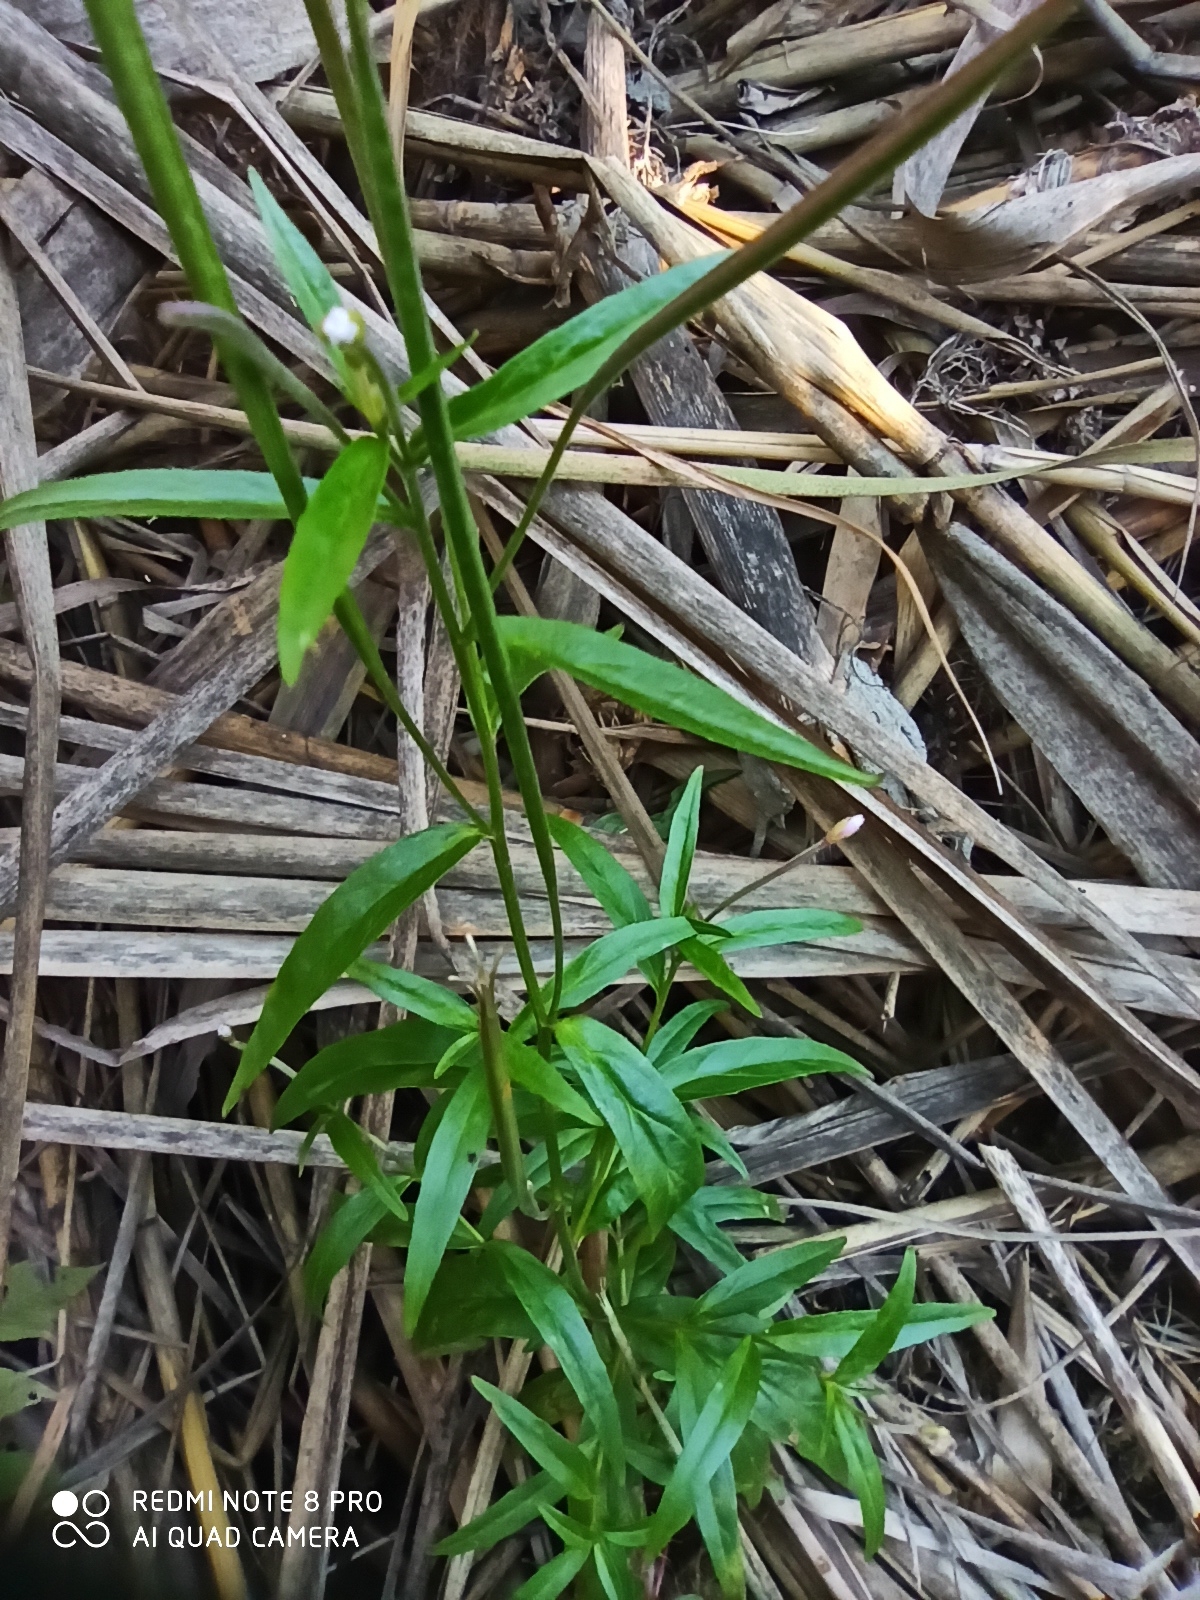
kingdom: Plantae
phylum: Tracheophyta
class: Magnoliopsida
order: Myrtales
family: Onagraceae
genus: Epilobium
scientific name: Epilobium palustre
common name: Marsh willowherb
